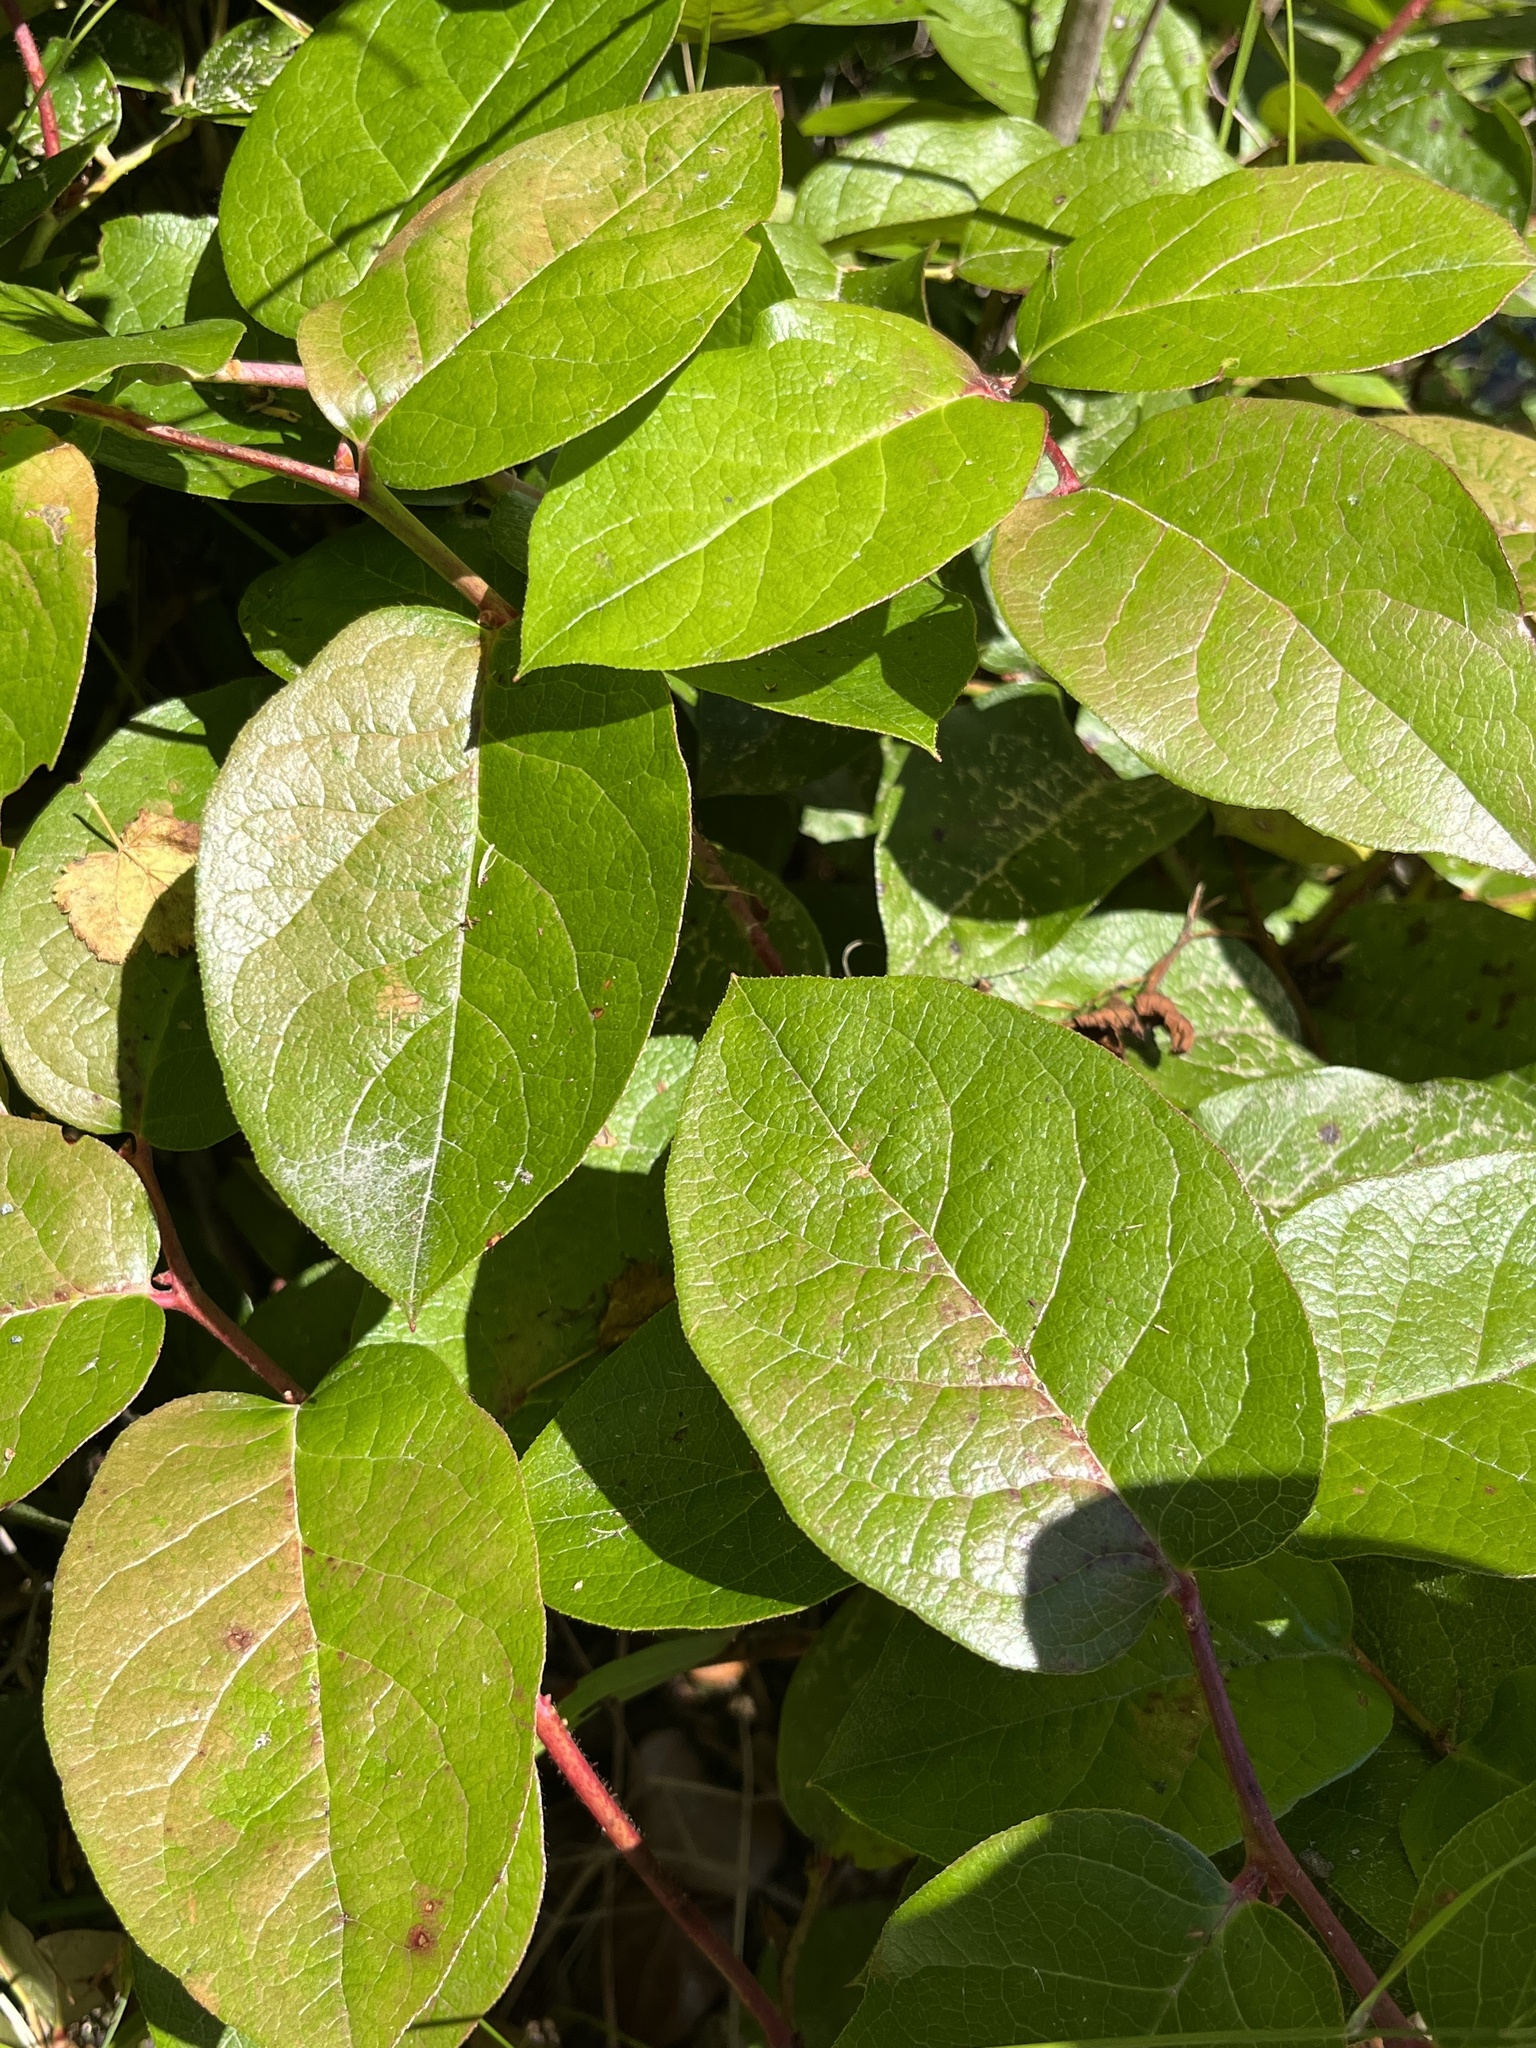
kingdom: Plantae
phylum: Tracheophyta
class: Magnoliopsida
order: Ericales
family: Ericaceae
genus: Gaultheria
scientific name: Gaultheria shallon
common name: Shallon
